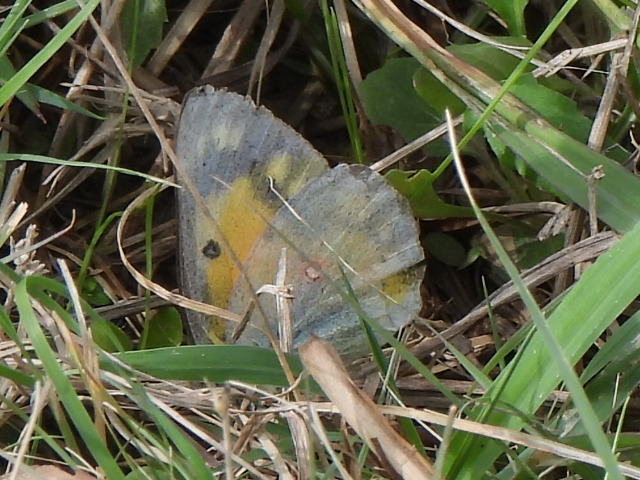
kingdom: Animalia
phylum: Arthropoda
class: Insecta
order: Lepidoptera
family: Pieridae
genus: Colias
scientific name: Colias eurytheme
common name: Alfalfa butterfly
